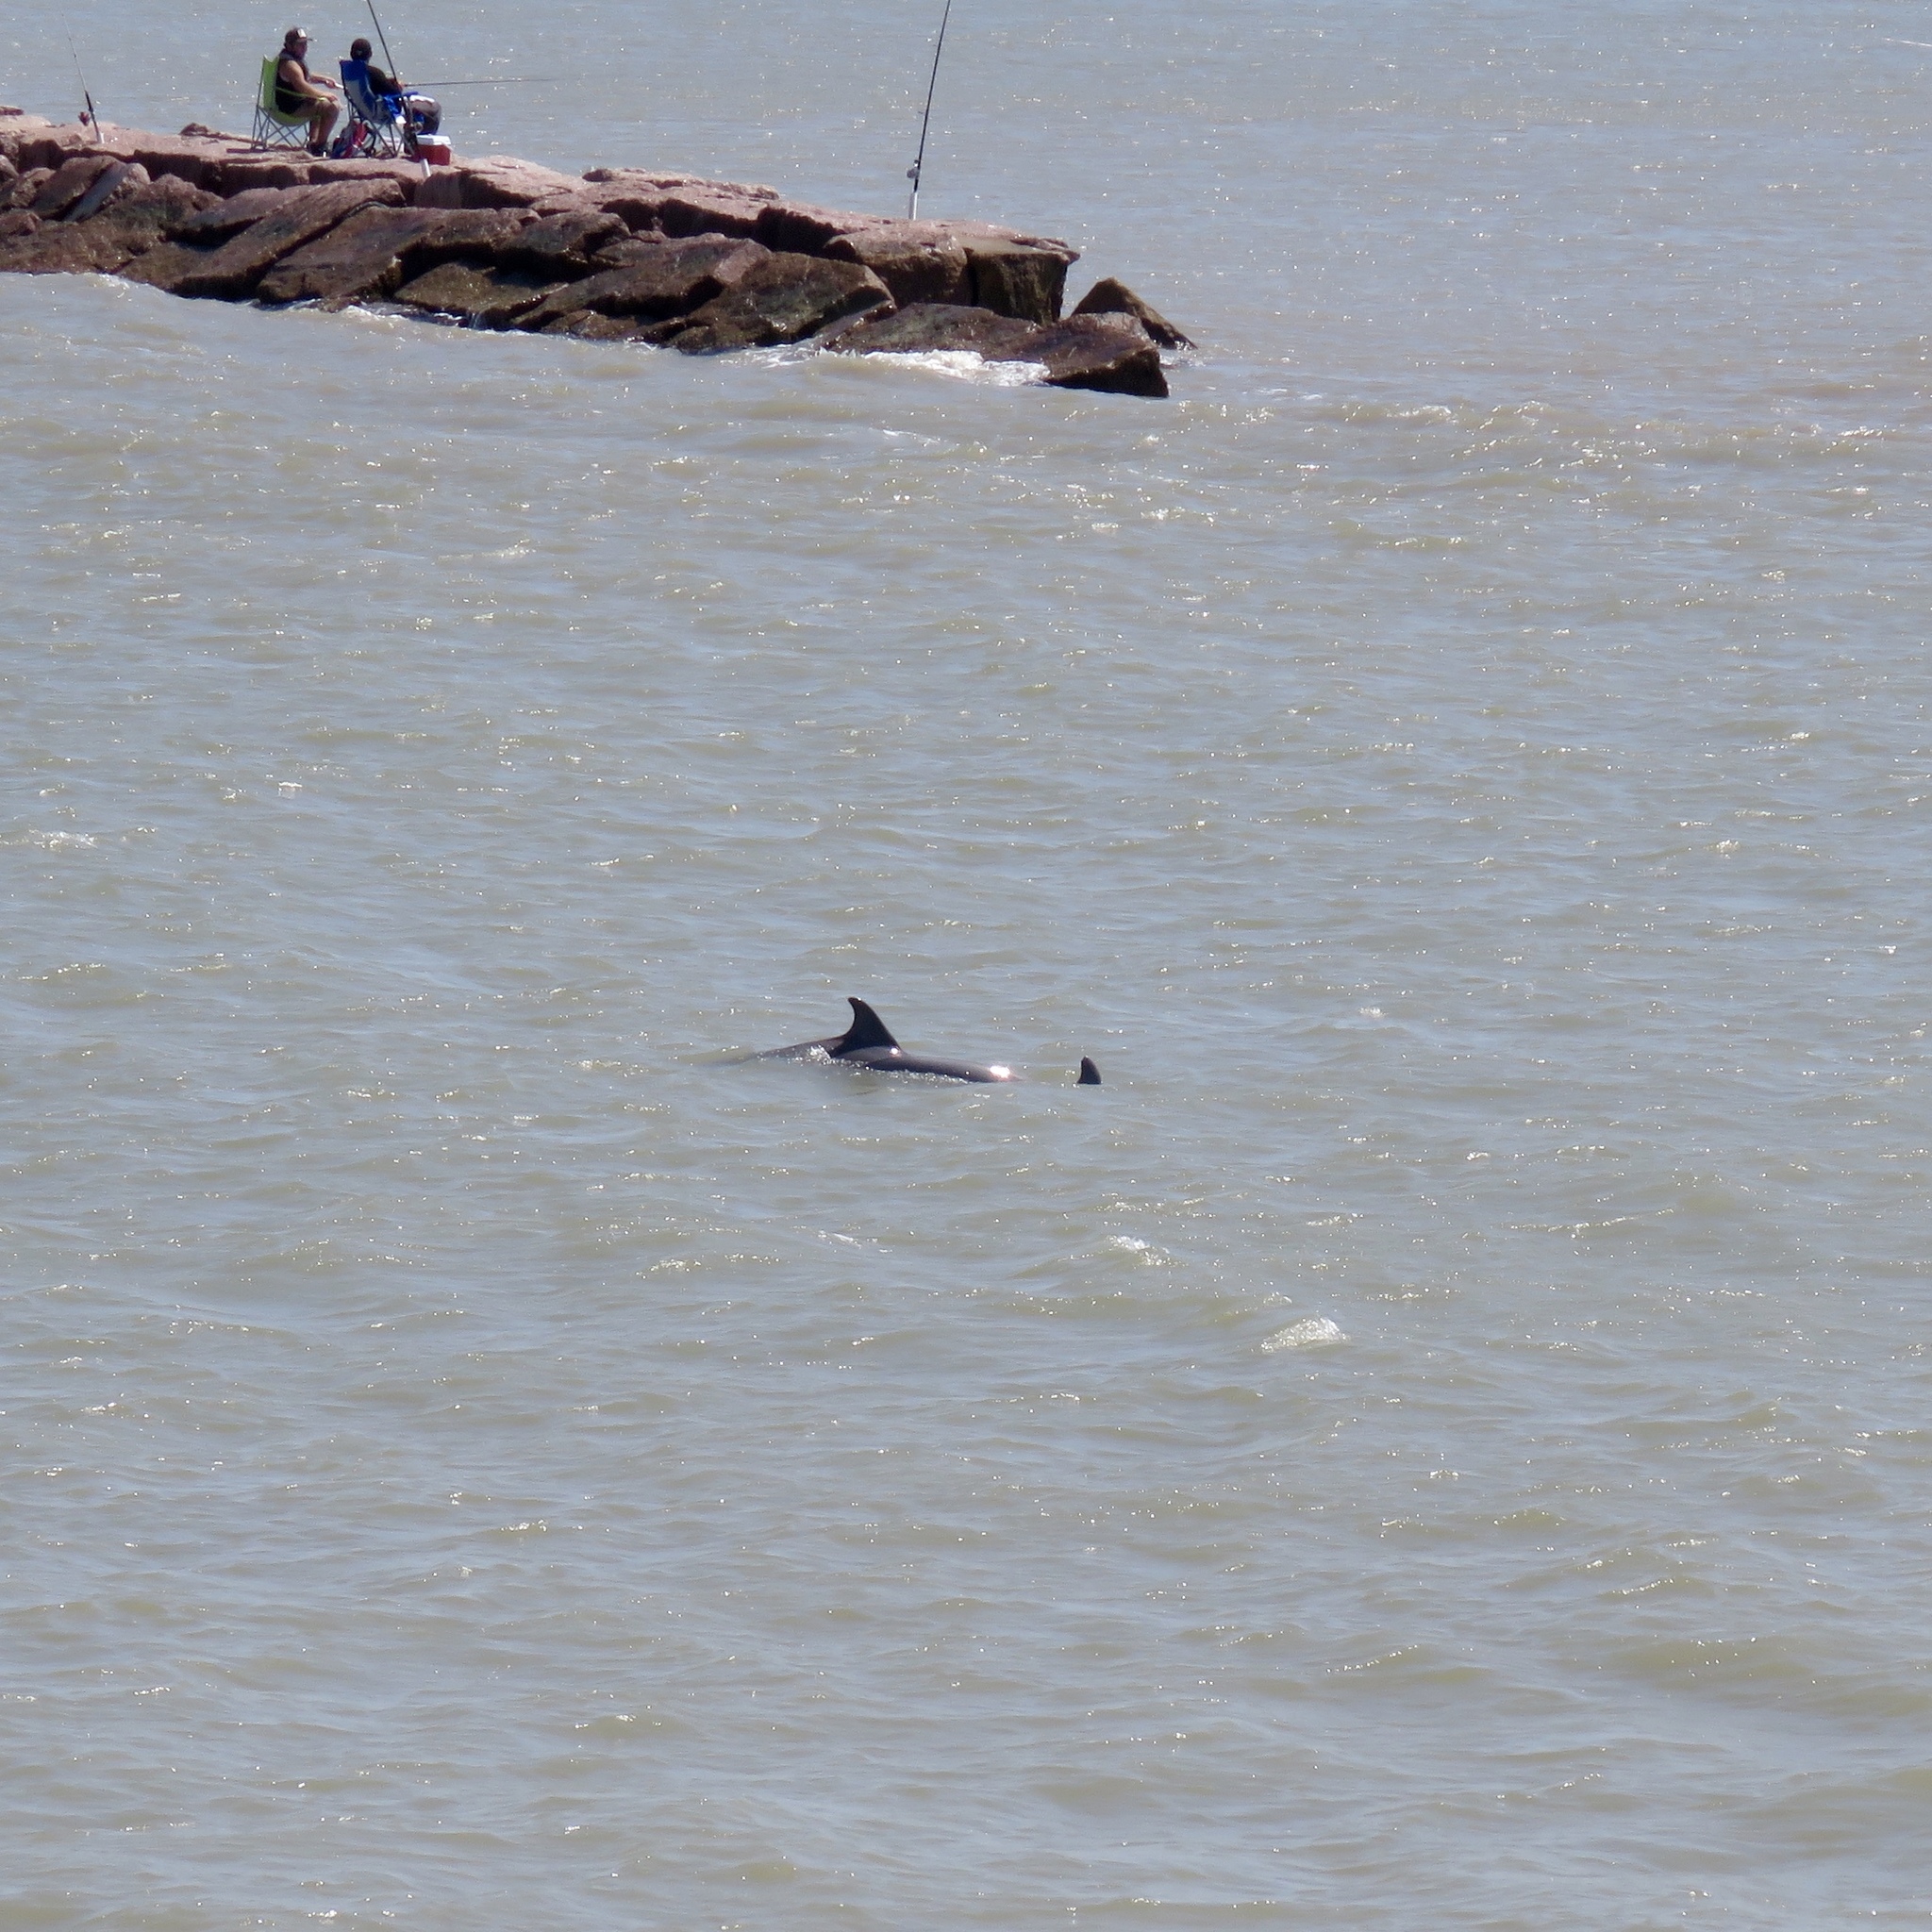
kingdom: Animalia
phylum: Chordata
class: Mammalia
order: Cetacea
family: Delphinidae
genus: Tursiops
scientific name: Tursiops truncatus
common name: Bottlenose dolphin
